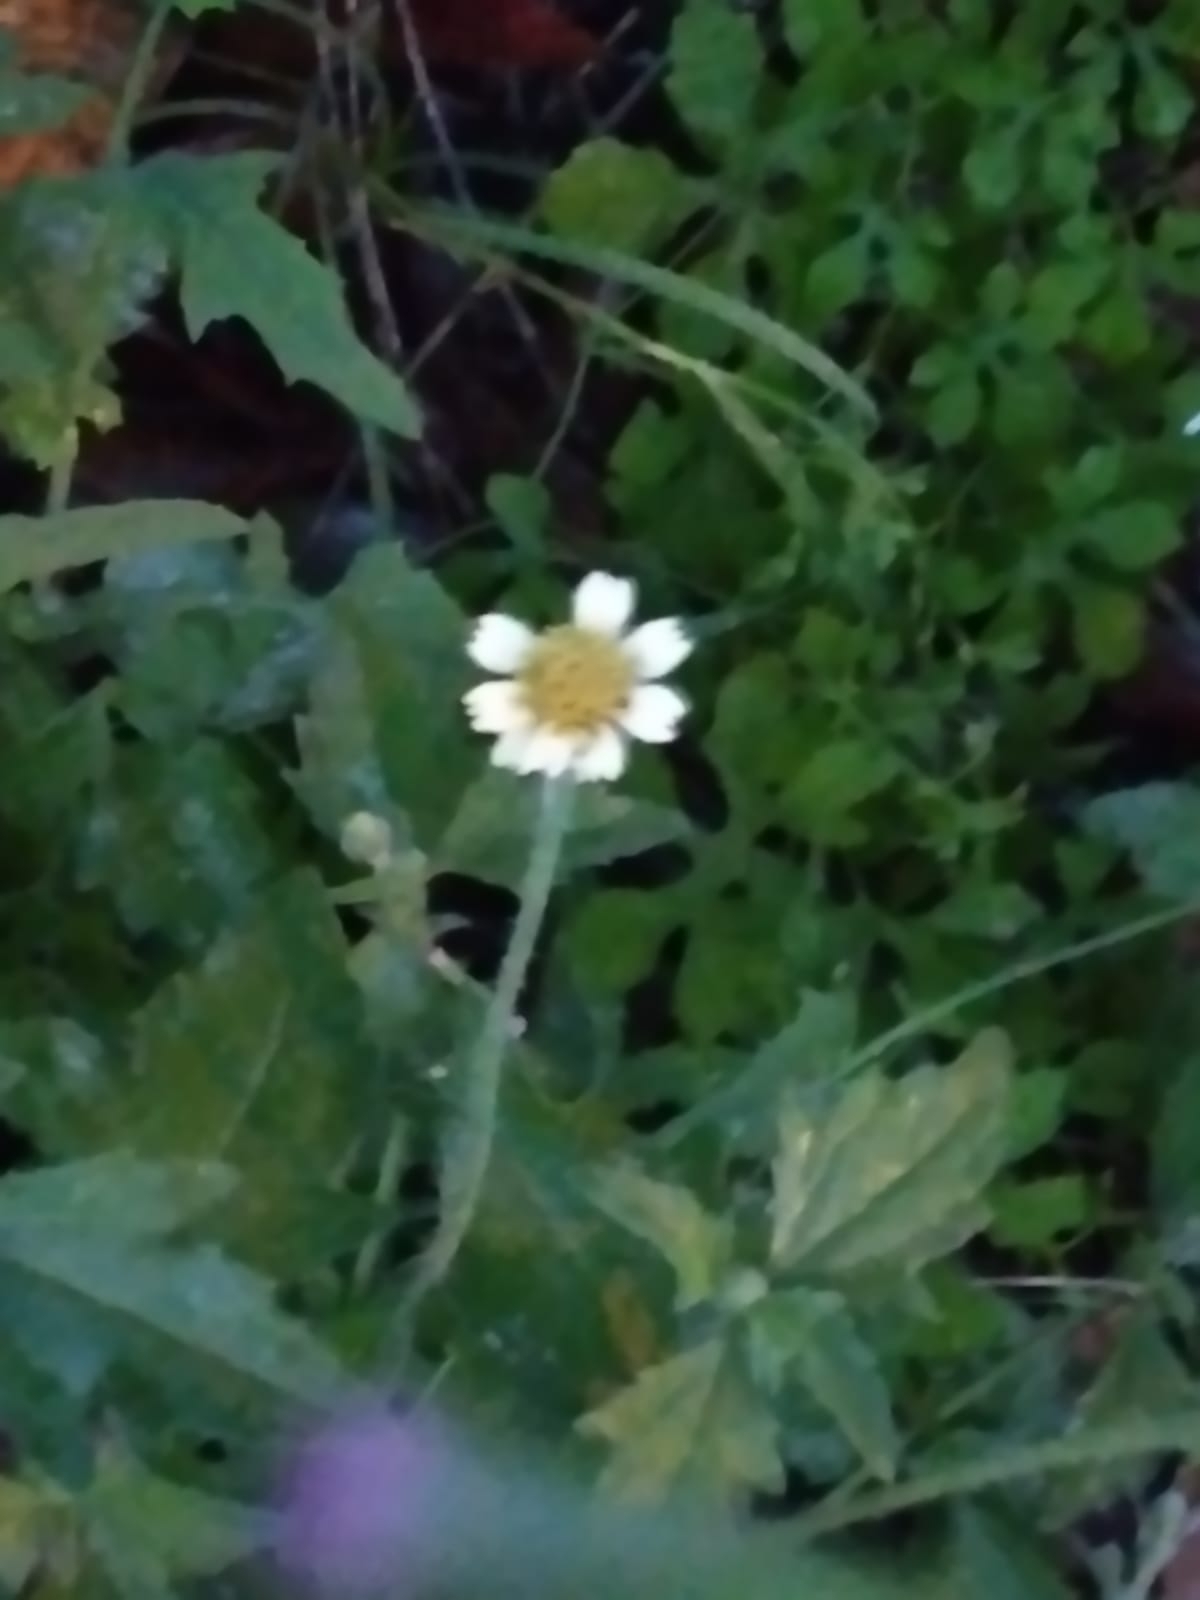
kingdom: Plantae
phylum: Tracheophyta
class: Magnoliopsida
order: Asterales
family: Asteraceae
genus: Tridax
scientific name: Tridax procumbens
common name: Coatbuttons
